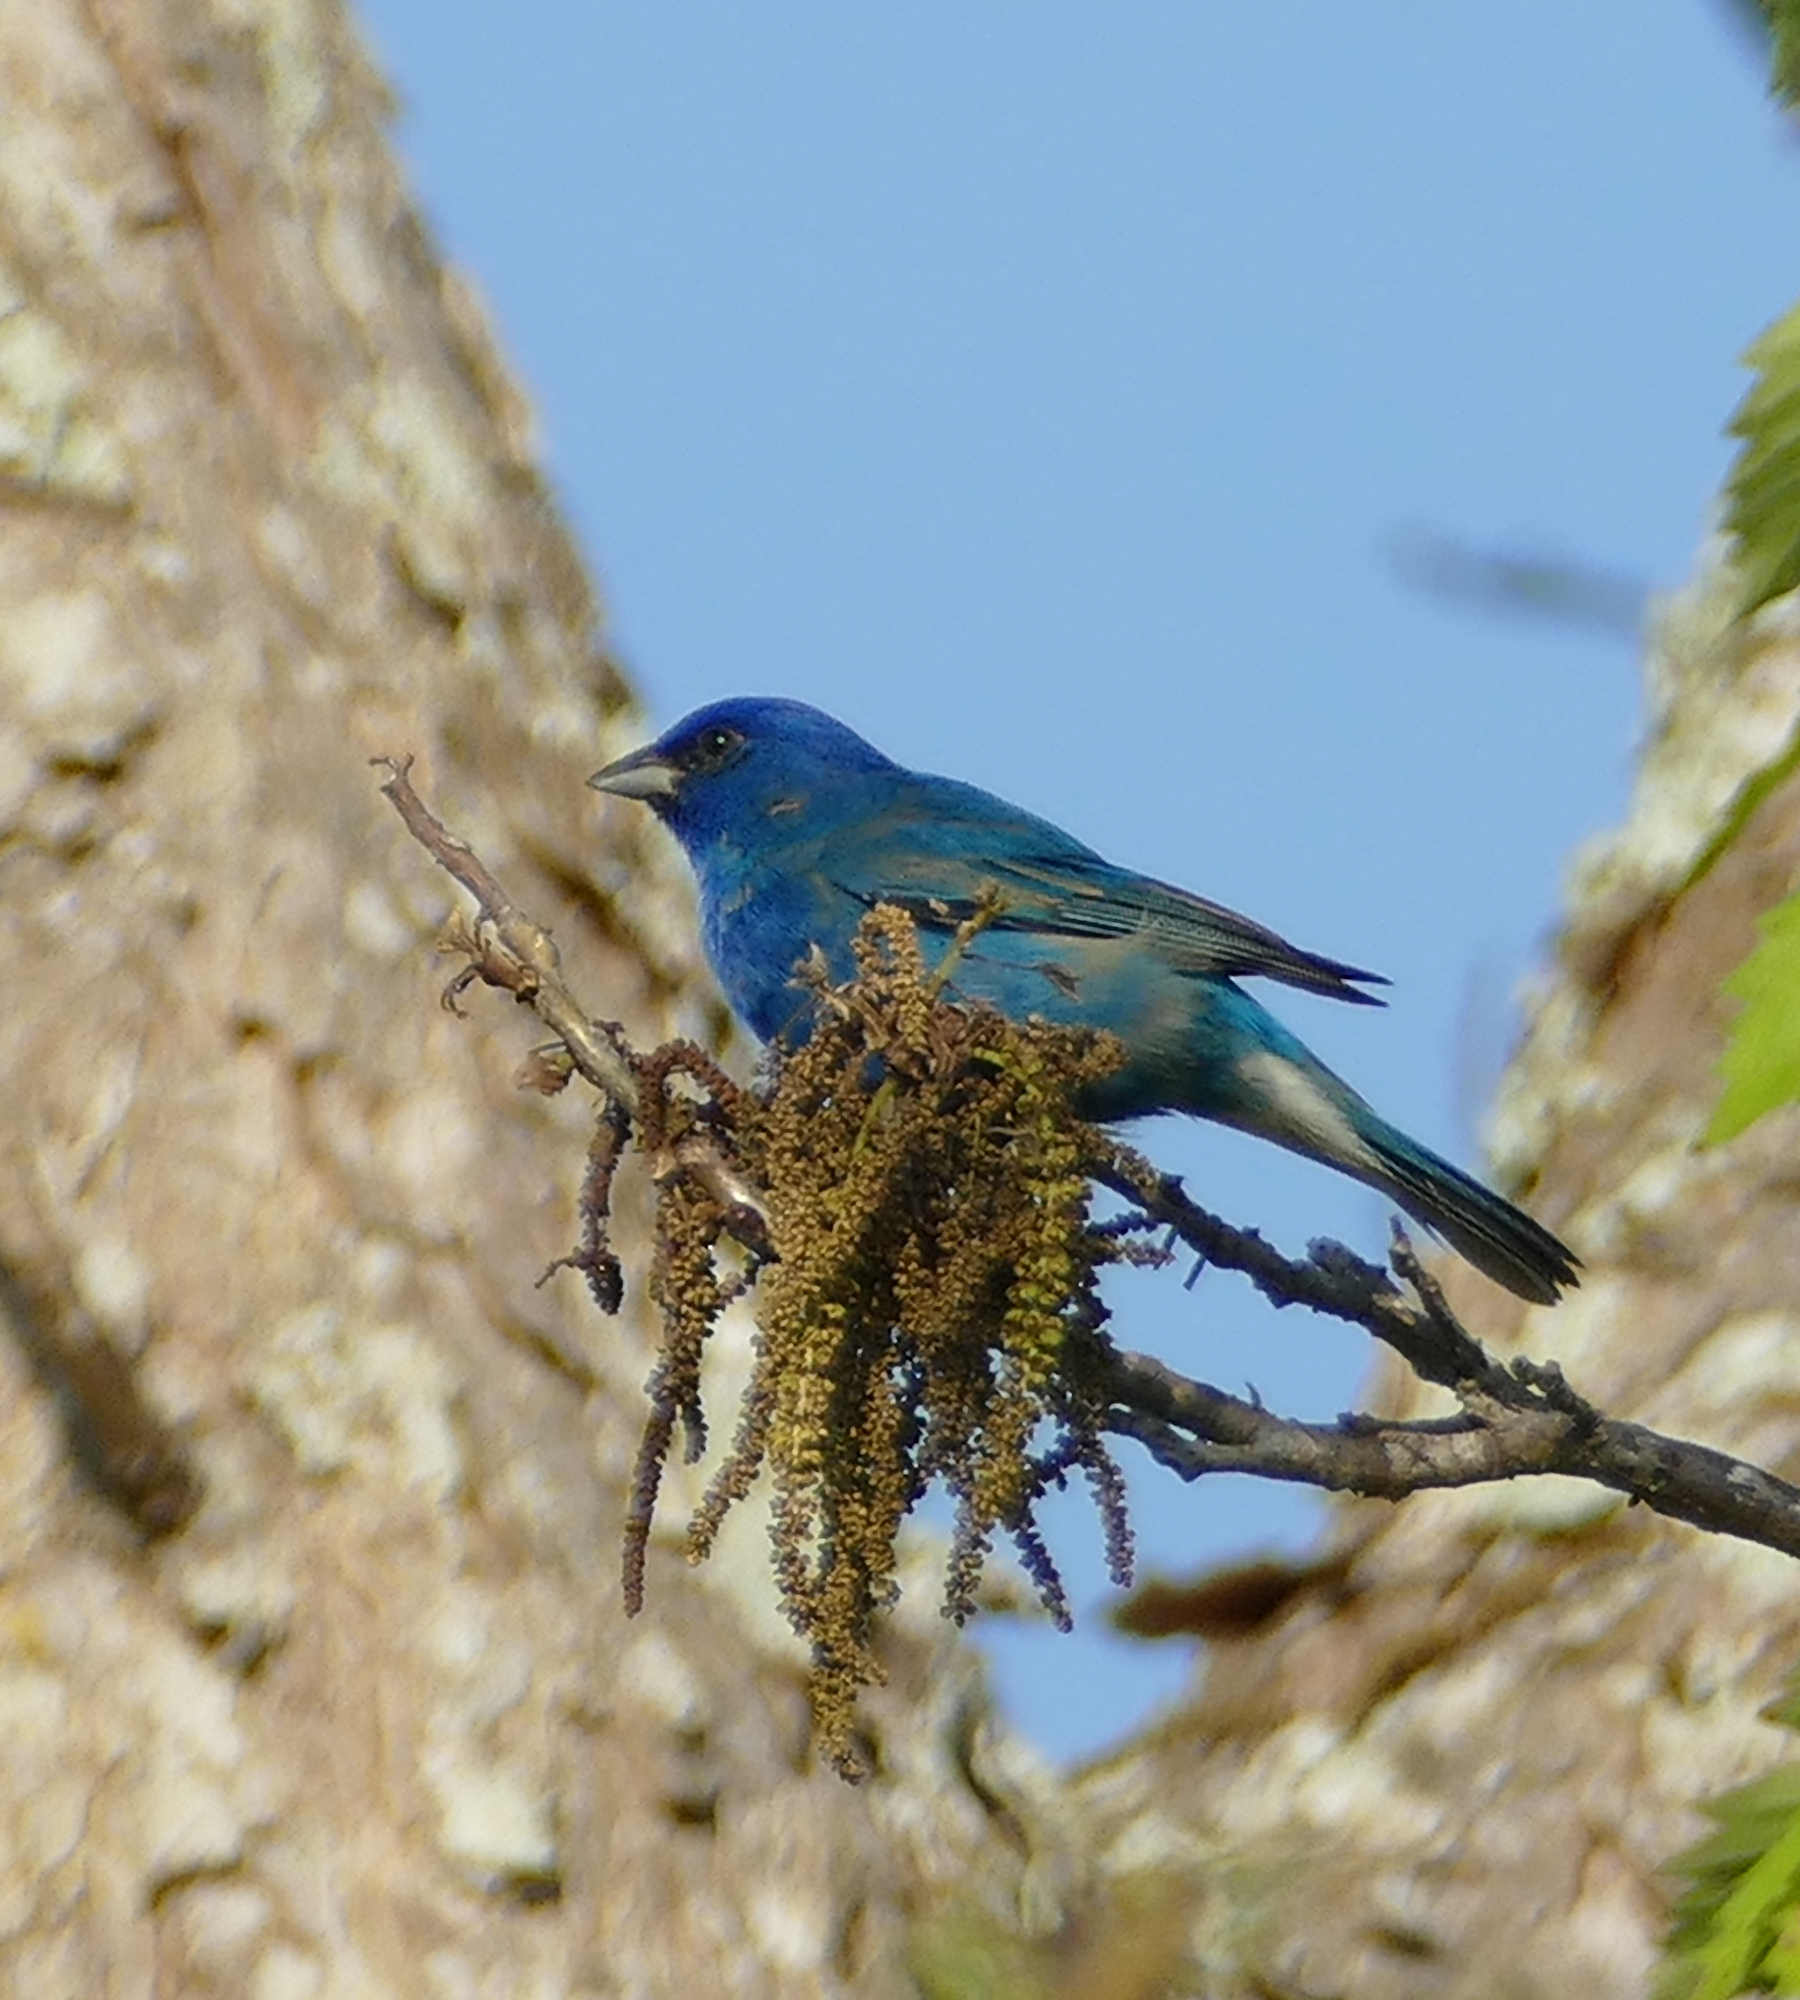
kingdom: Animalia
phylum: Chordata
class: Aves
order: Passeriformes
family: Cardinalidae
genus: Passerina
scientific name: Passerina cyanea
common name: Indigo bunting
